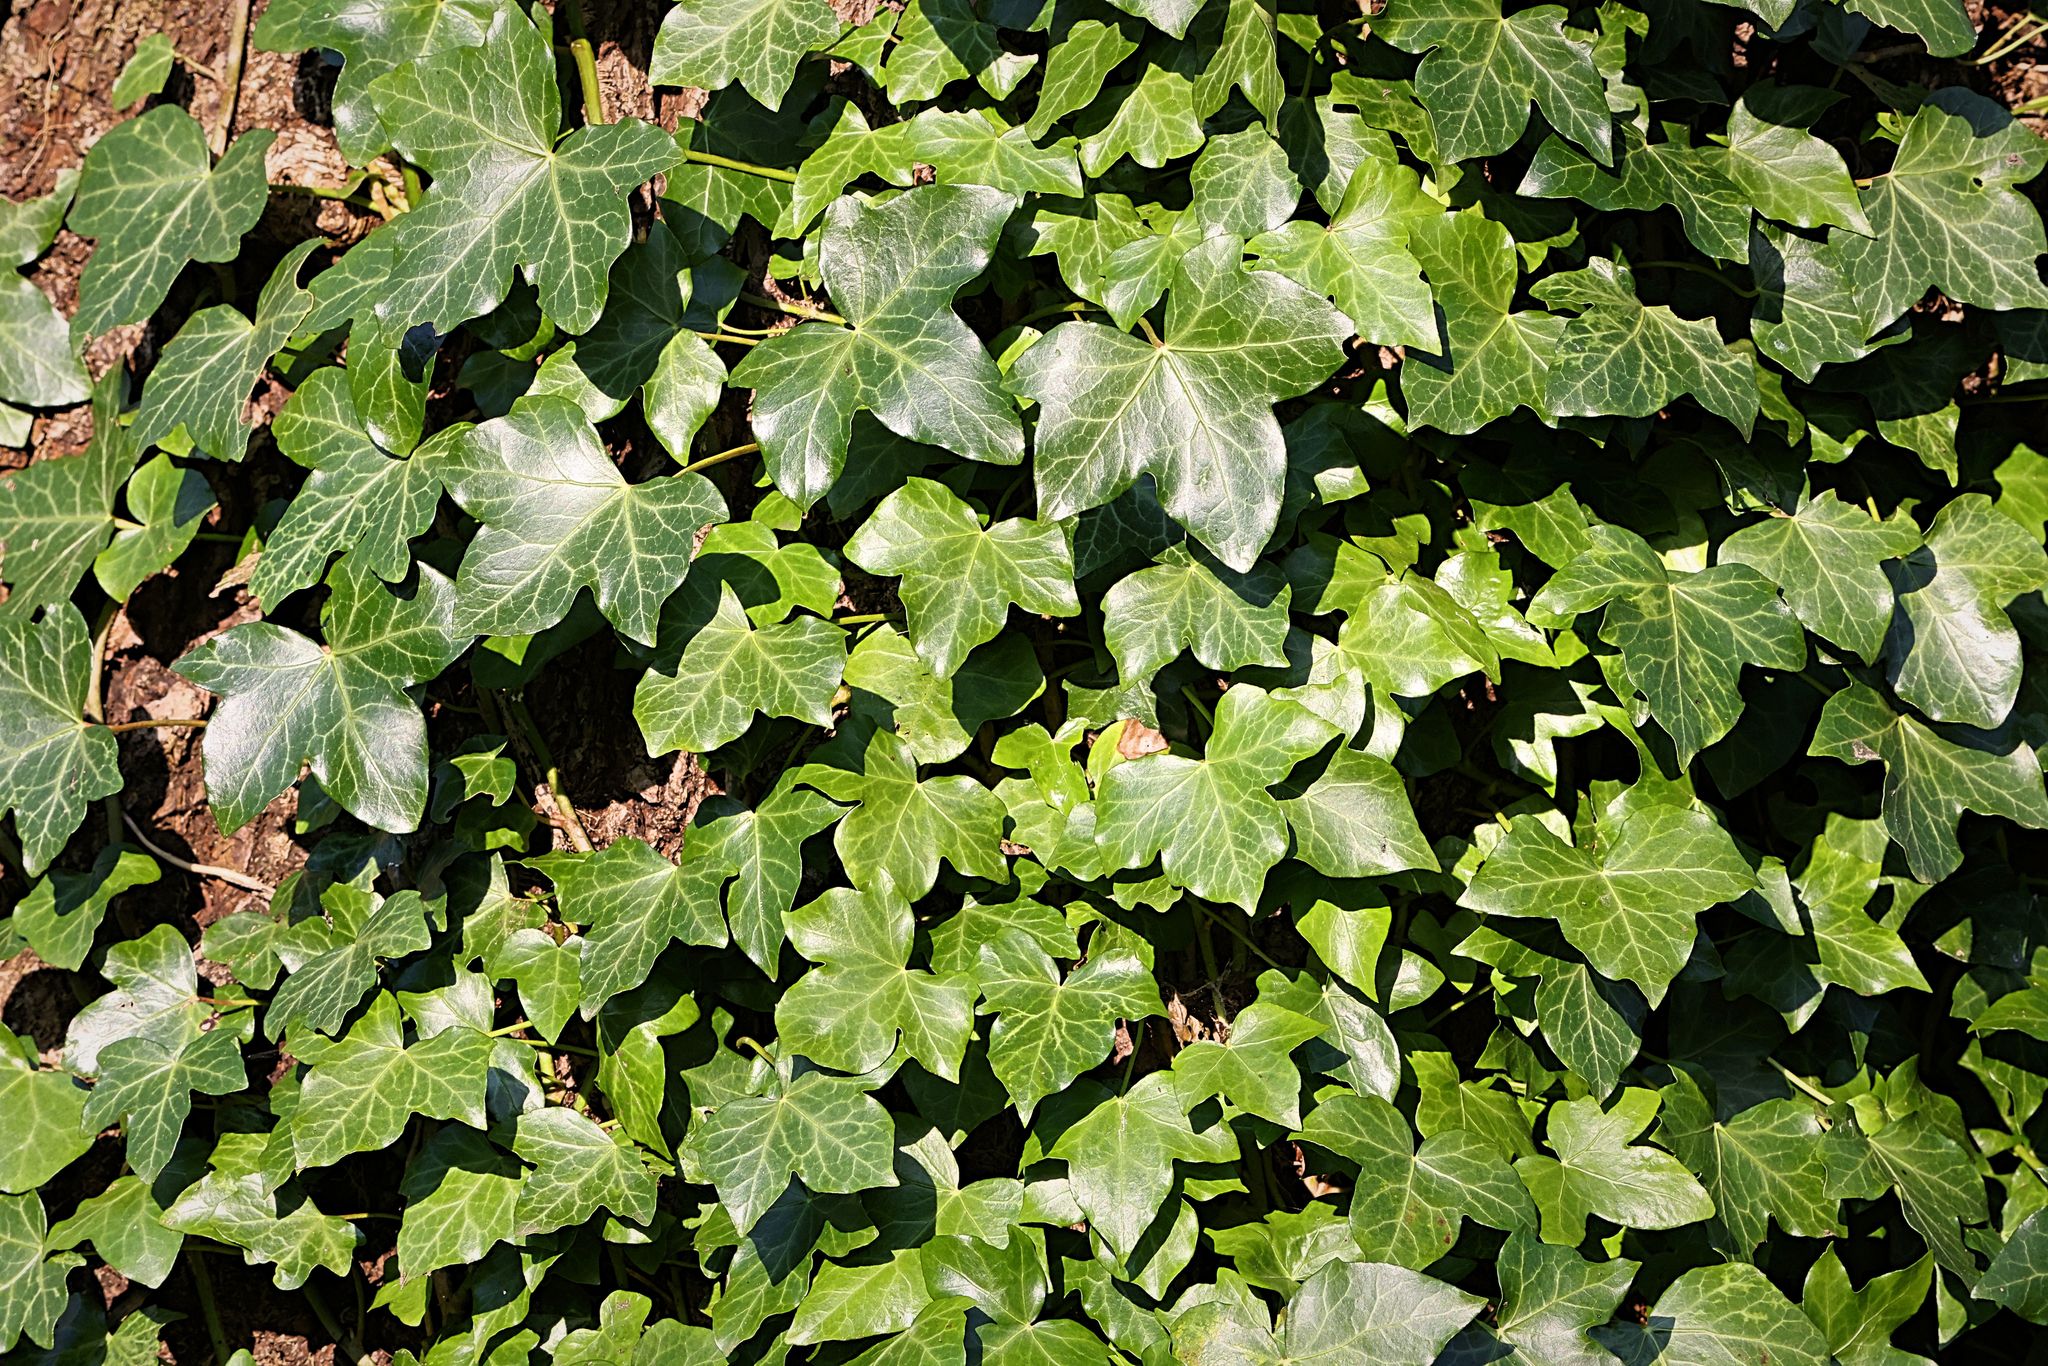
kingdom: Plantae
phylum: Tracheophyta
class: Magnoliopsida
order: Apiales
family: Araliaceae
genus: Hedera
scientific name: Hedera helix
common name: Ivy
